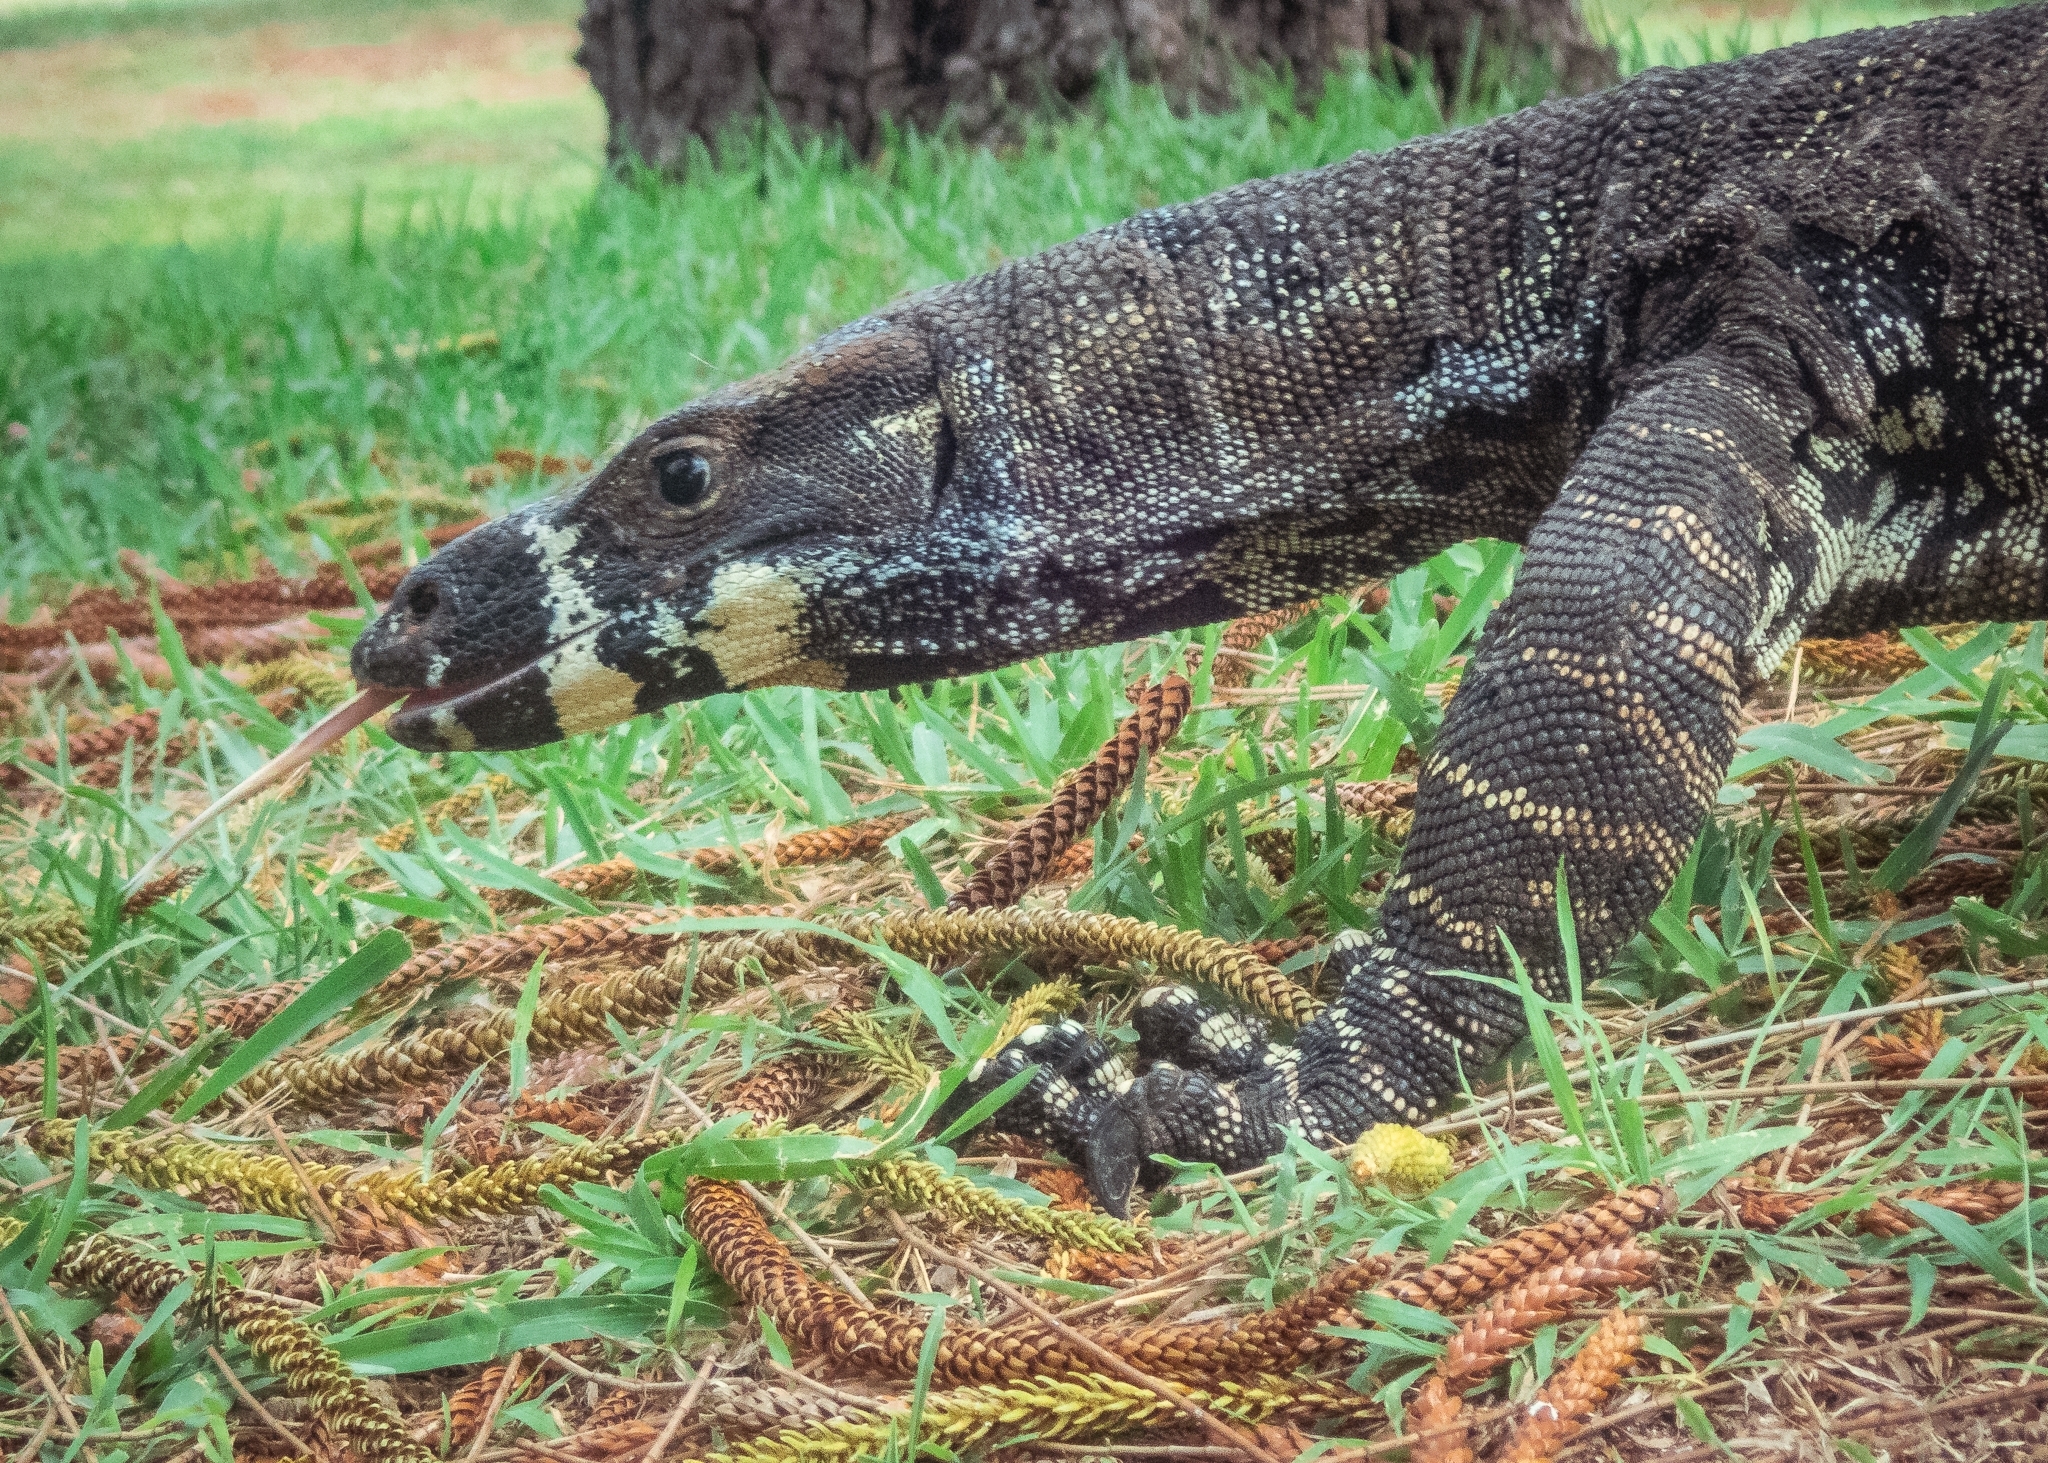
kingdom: Animalia
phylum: Chordata
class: Squamata
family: Varanidae
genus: Varanus
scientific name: Varanus varius
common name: Lace monitor
